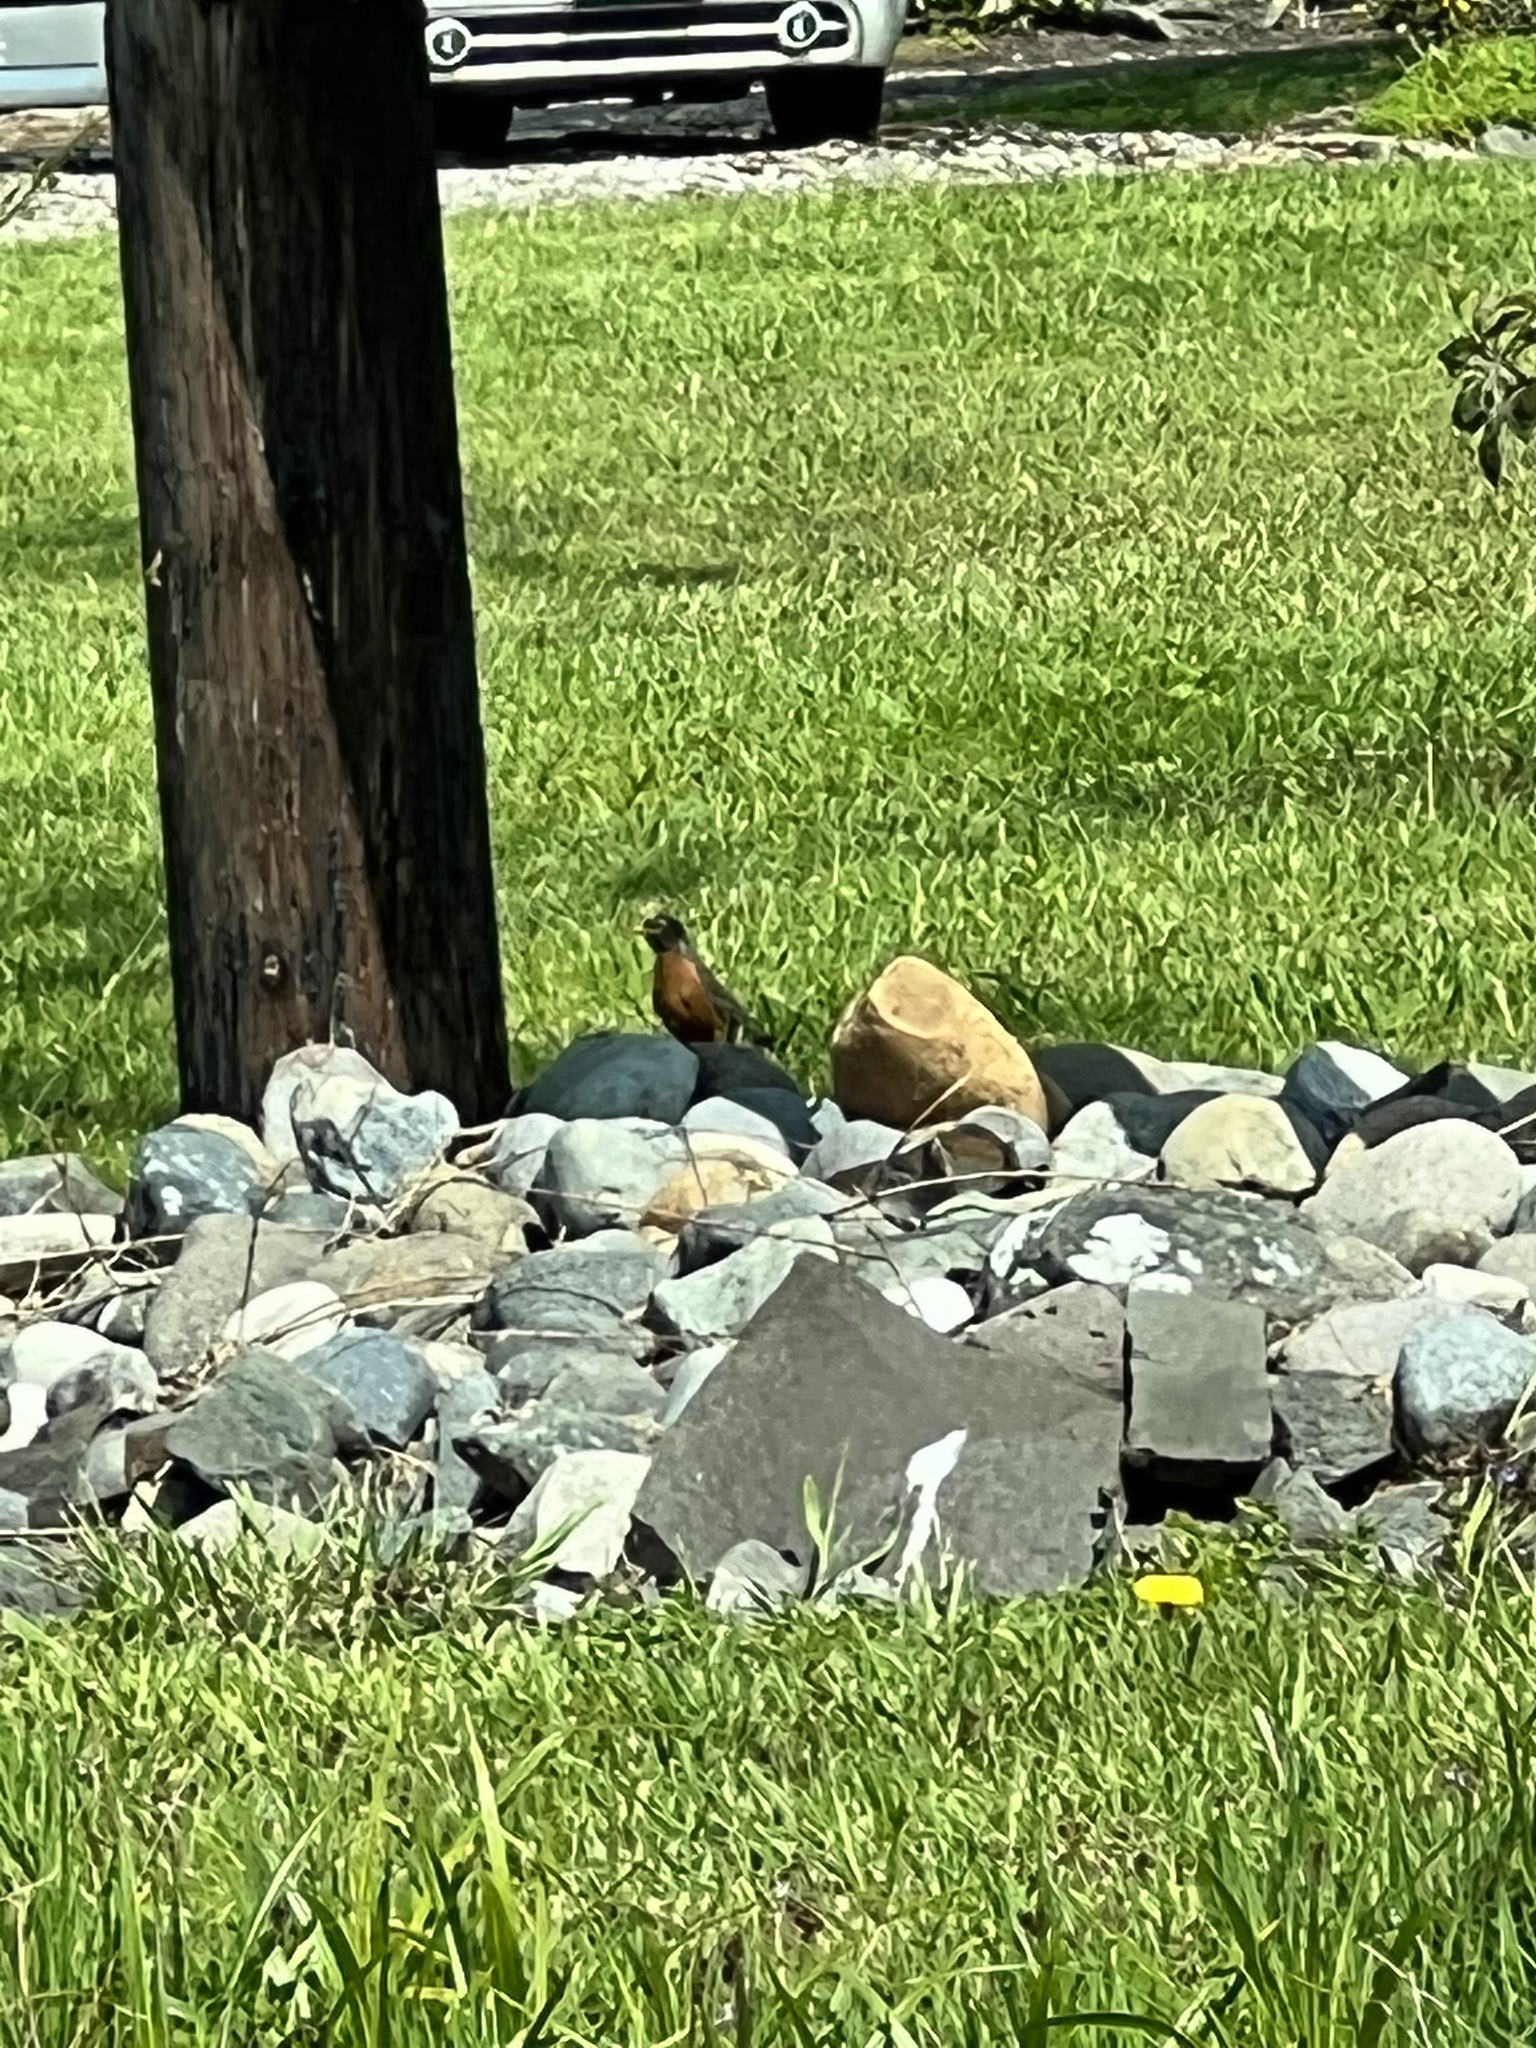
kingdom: Animalia
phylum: Chordata
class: Aves
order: Passeriformes
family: Turdidae
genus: Turdus
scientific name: Turdus migratorius
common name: American robin
